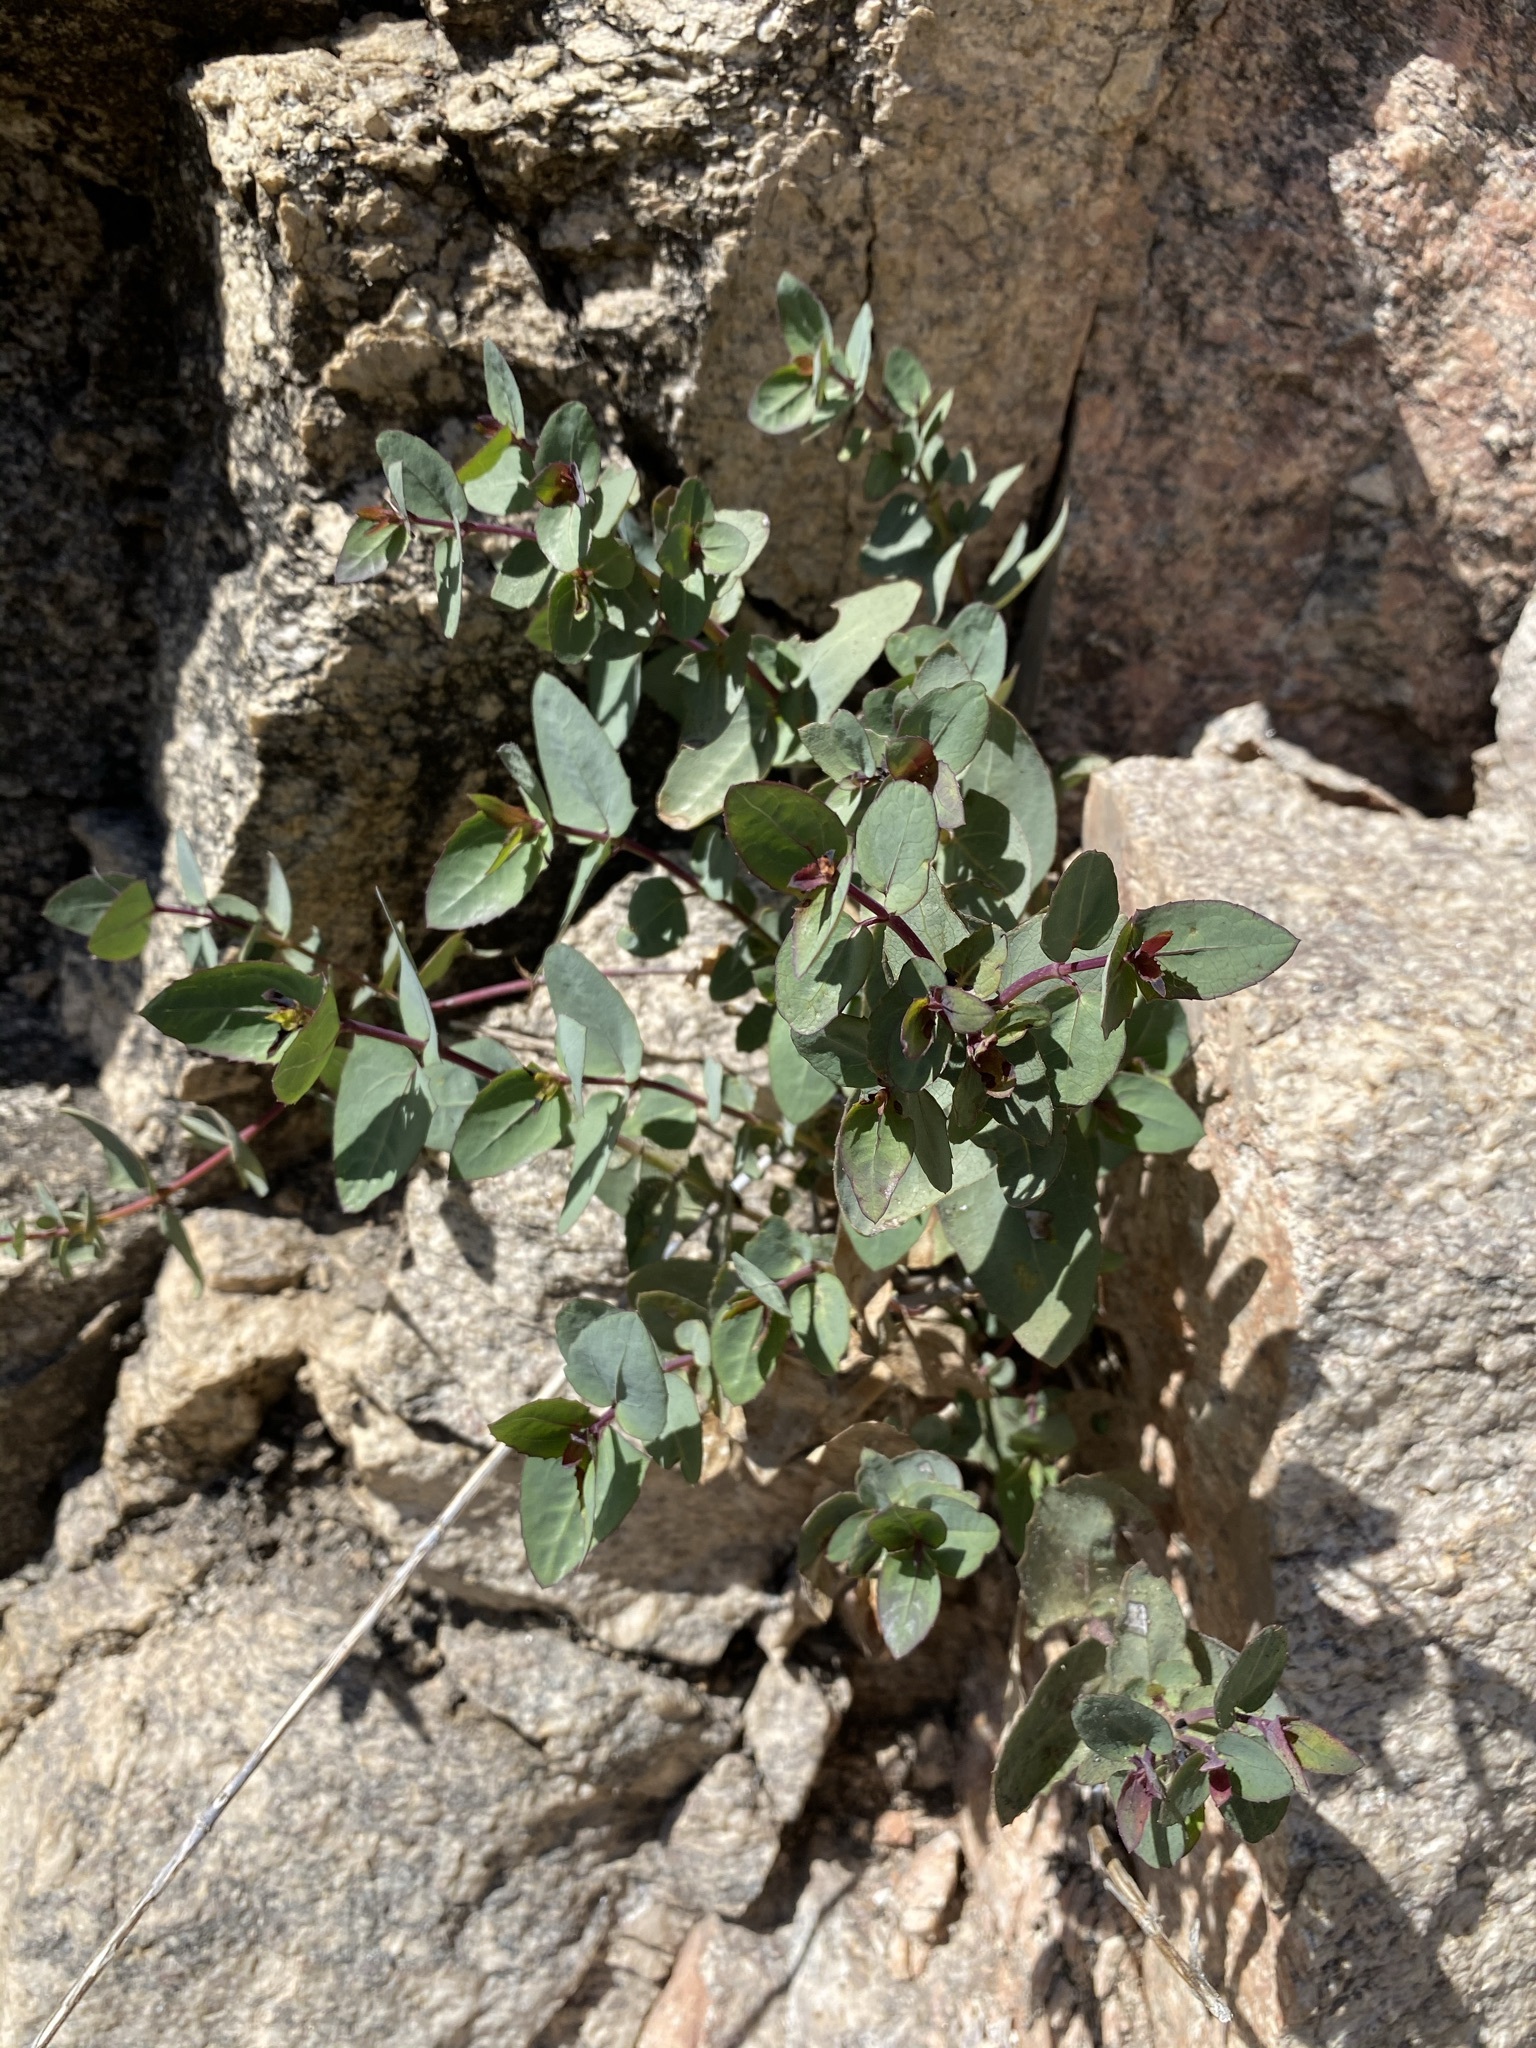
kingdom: Plantae
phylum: Tracheophyta
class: Magnoliopsida
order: Asterales
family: Asteraceae
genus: Guardiola
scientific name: Guardiola platyphylla
